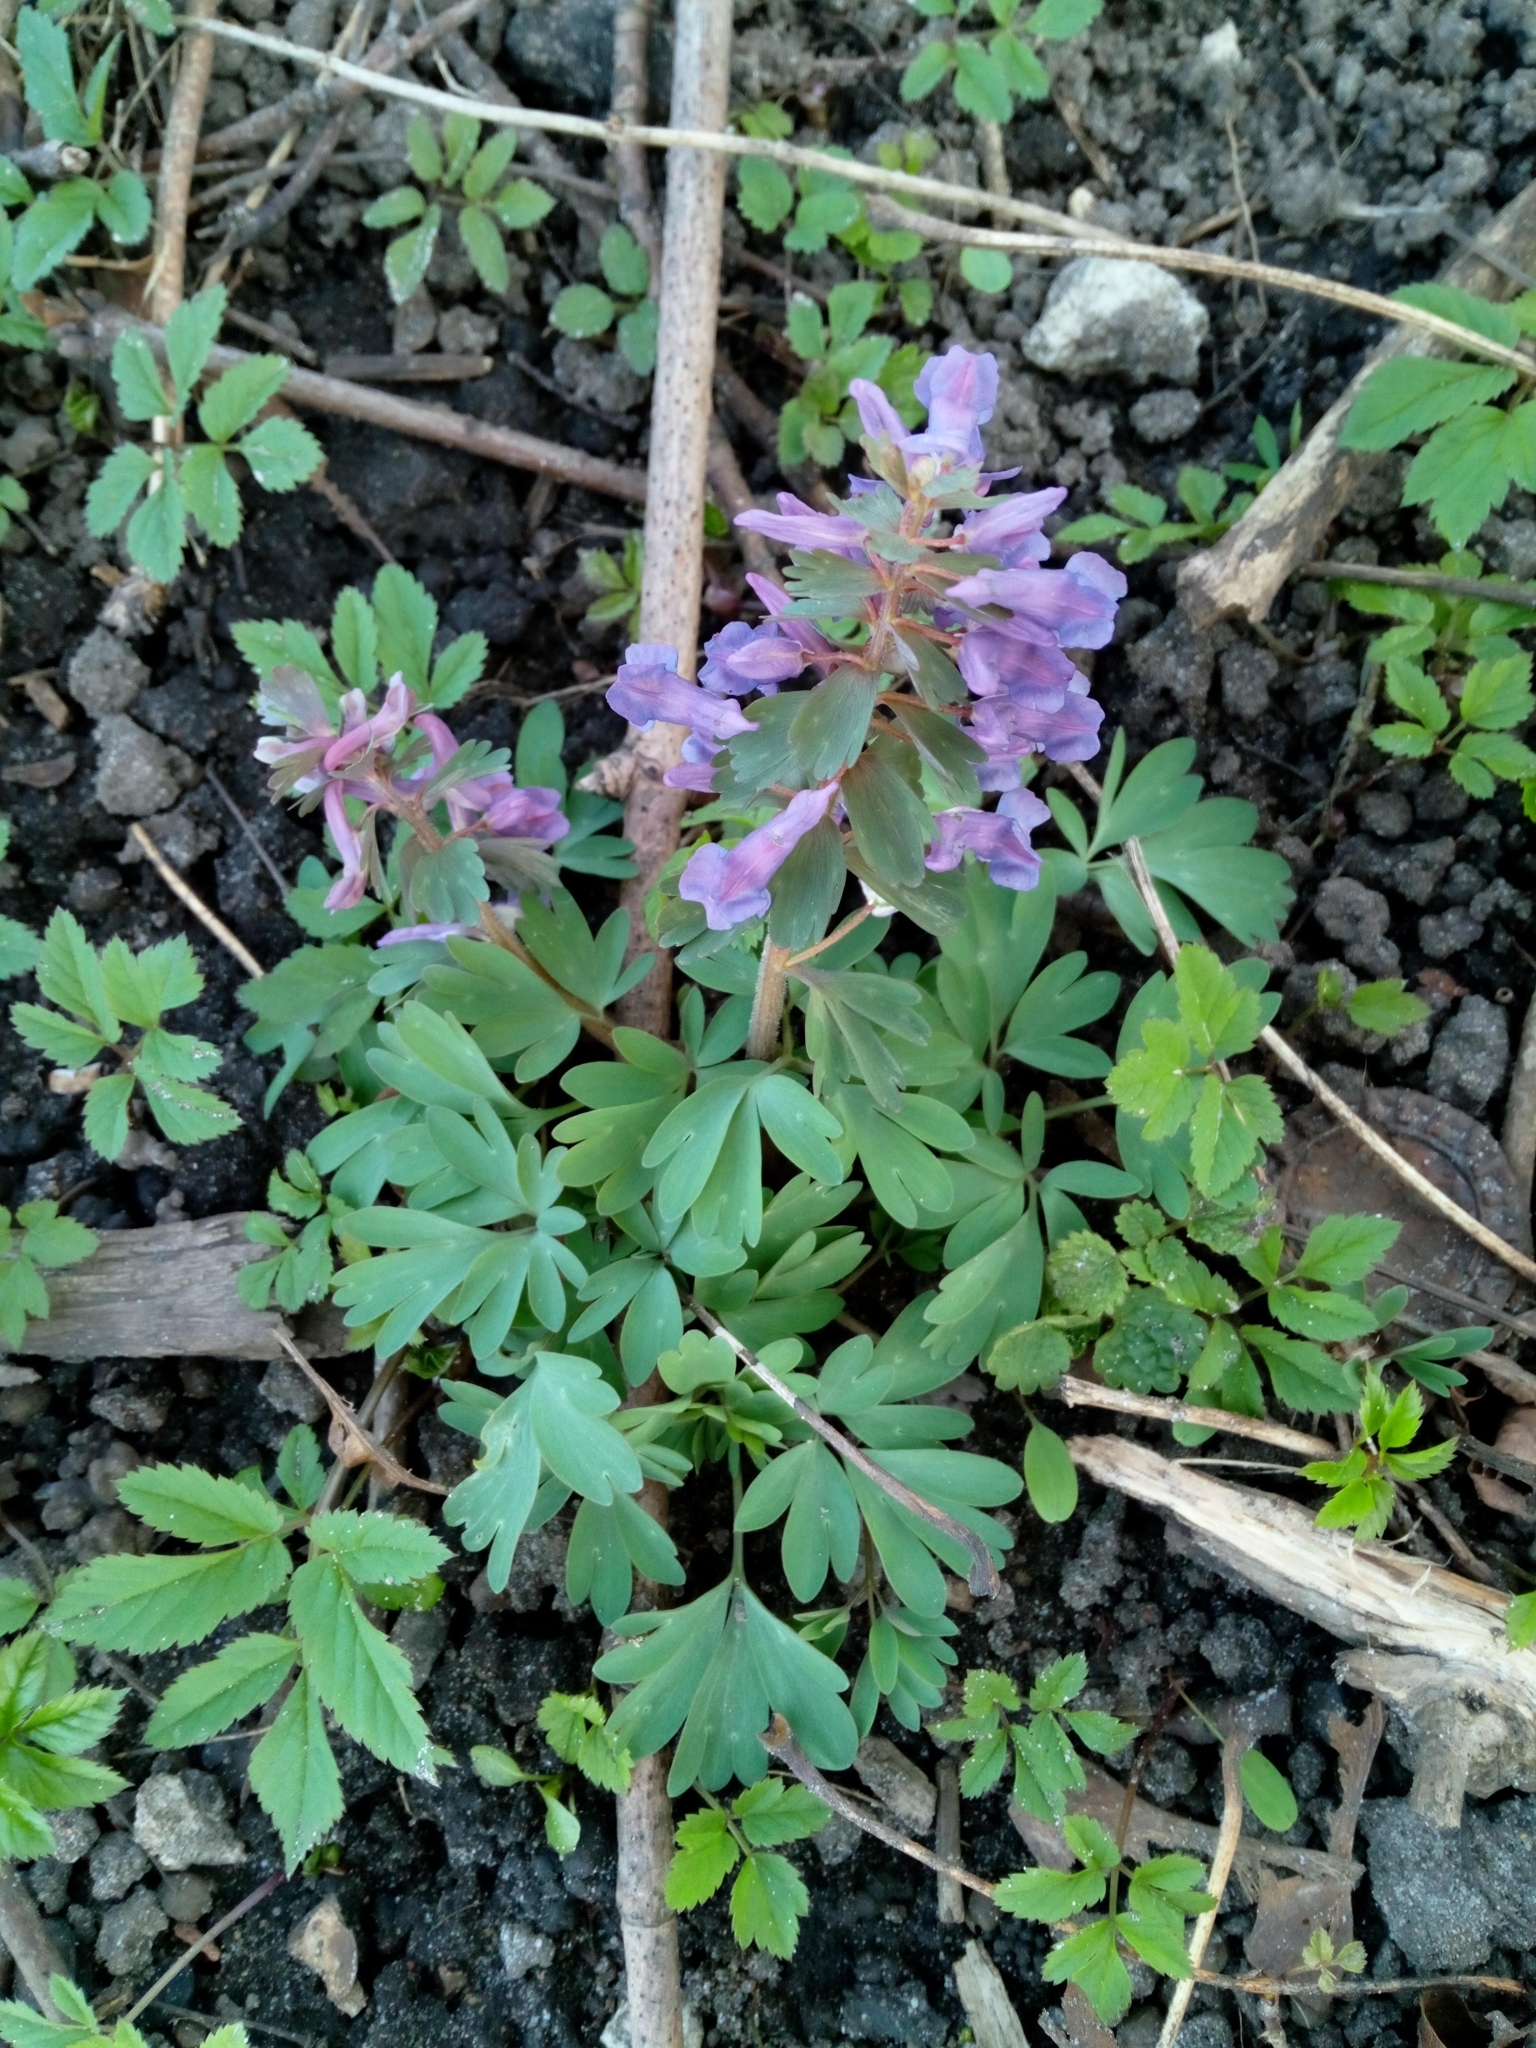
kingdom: Plantae
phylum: Tracheophyta
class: Magnoliopsida
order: Ranunculales
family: Papaveraceae
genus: Corydalis
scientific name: Corydalis solida
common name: Bird-in-a-bush
